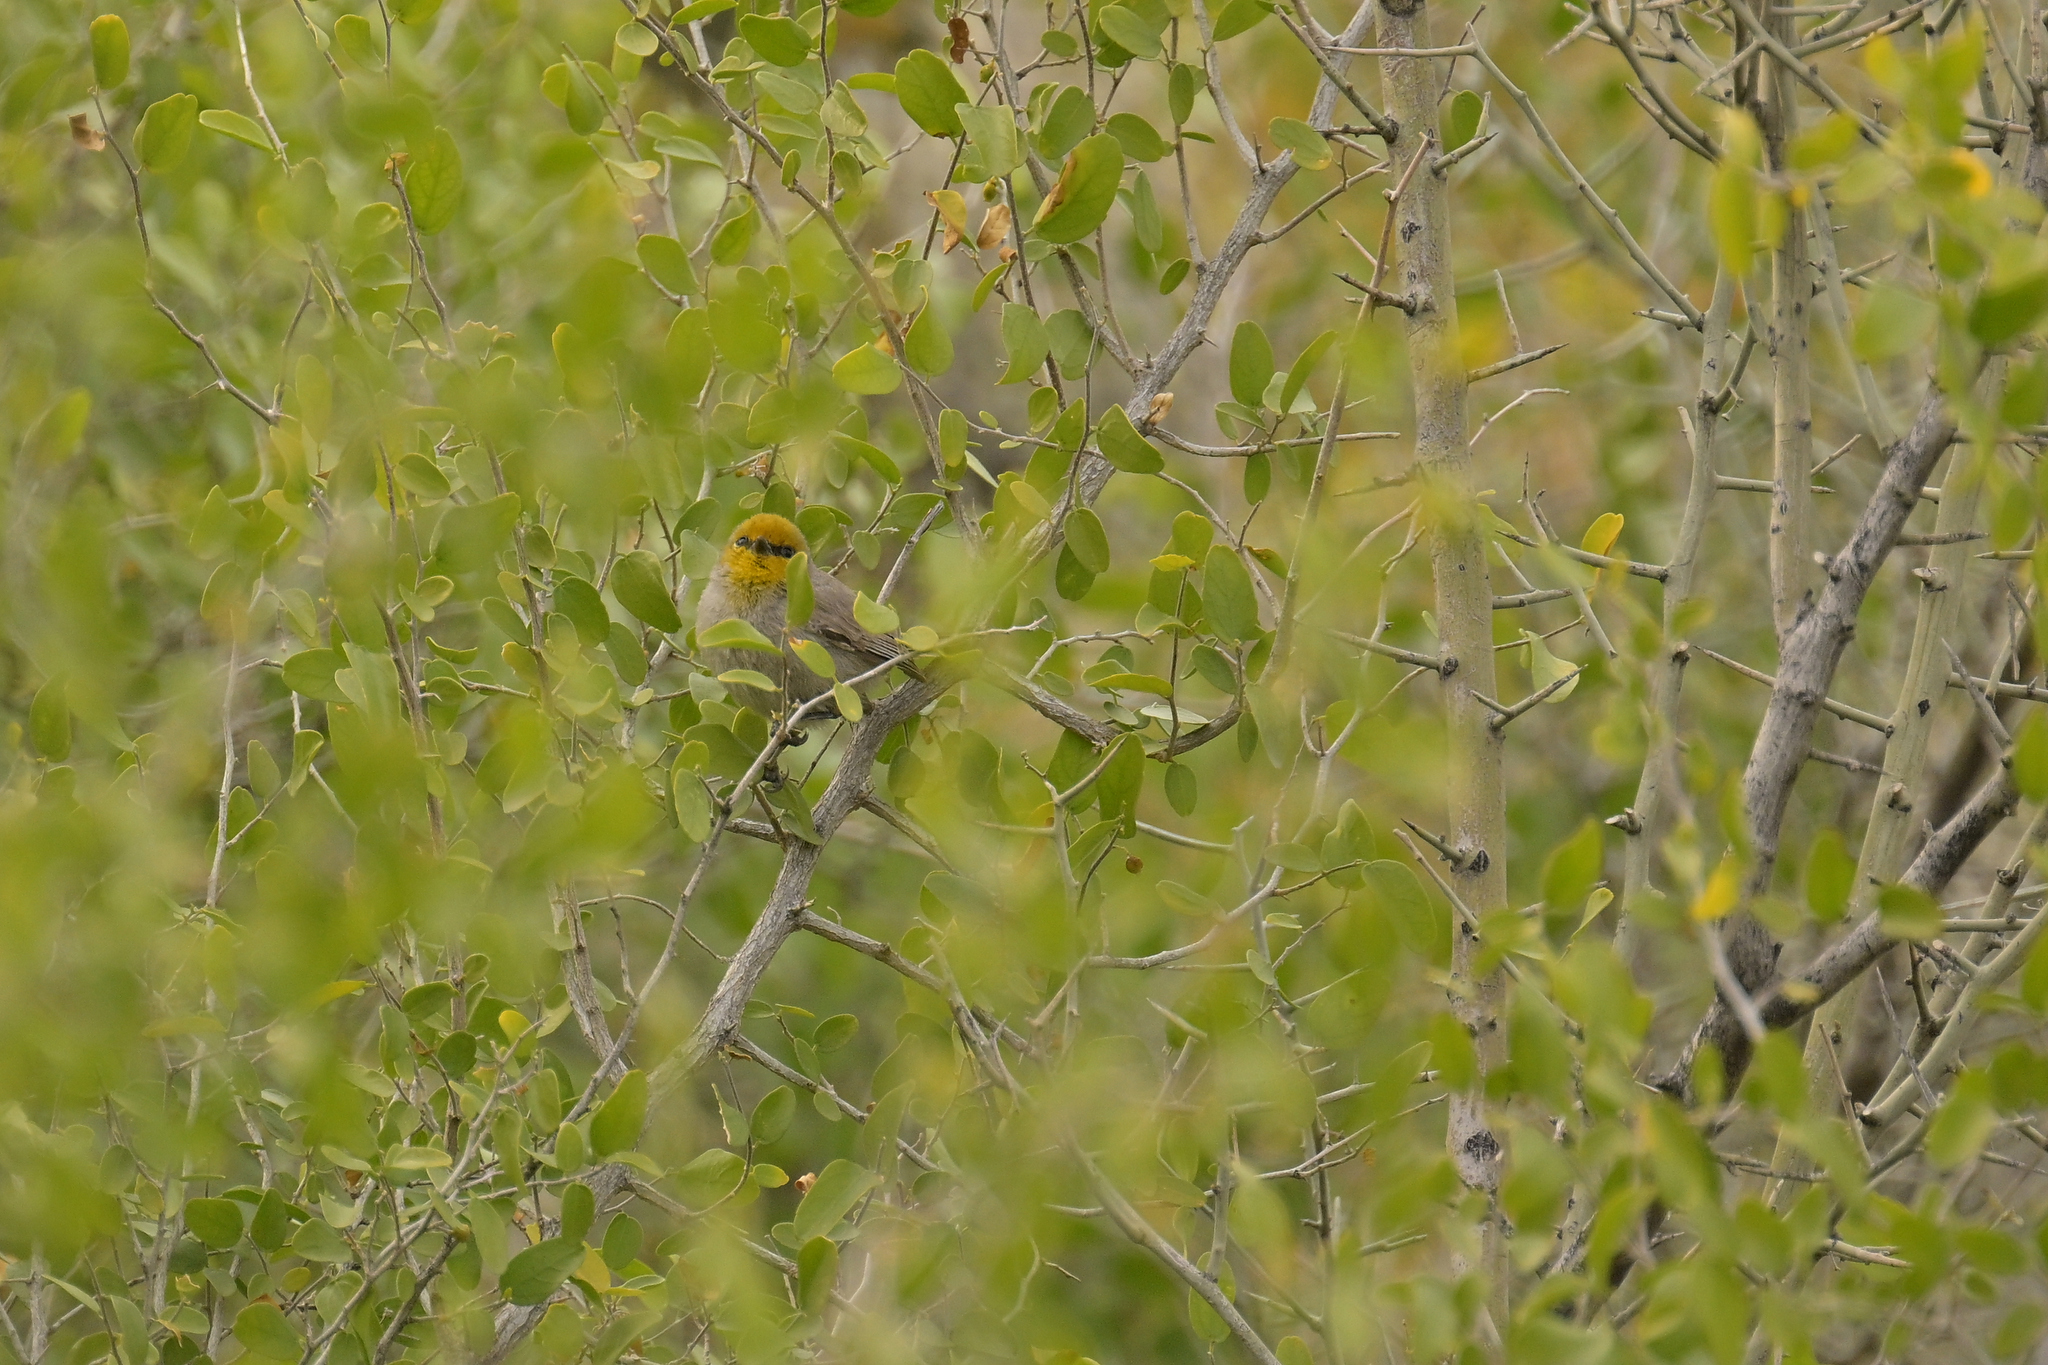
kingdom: Animalia
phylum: Chordata
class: Aves
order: Passeriformes
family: Remizidae
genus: Auriparus
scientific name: Auriparus flaviceps
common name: Verdin
